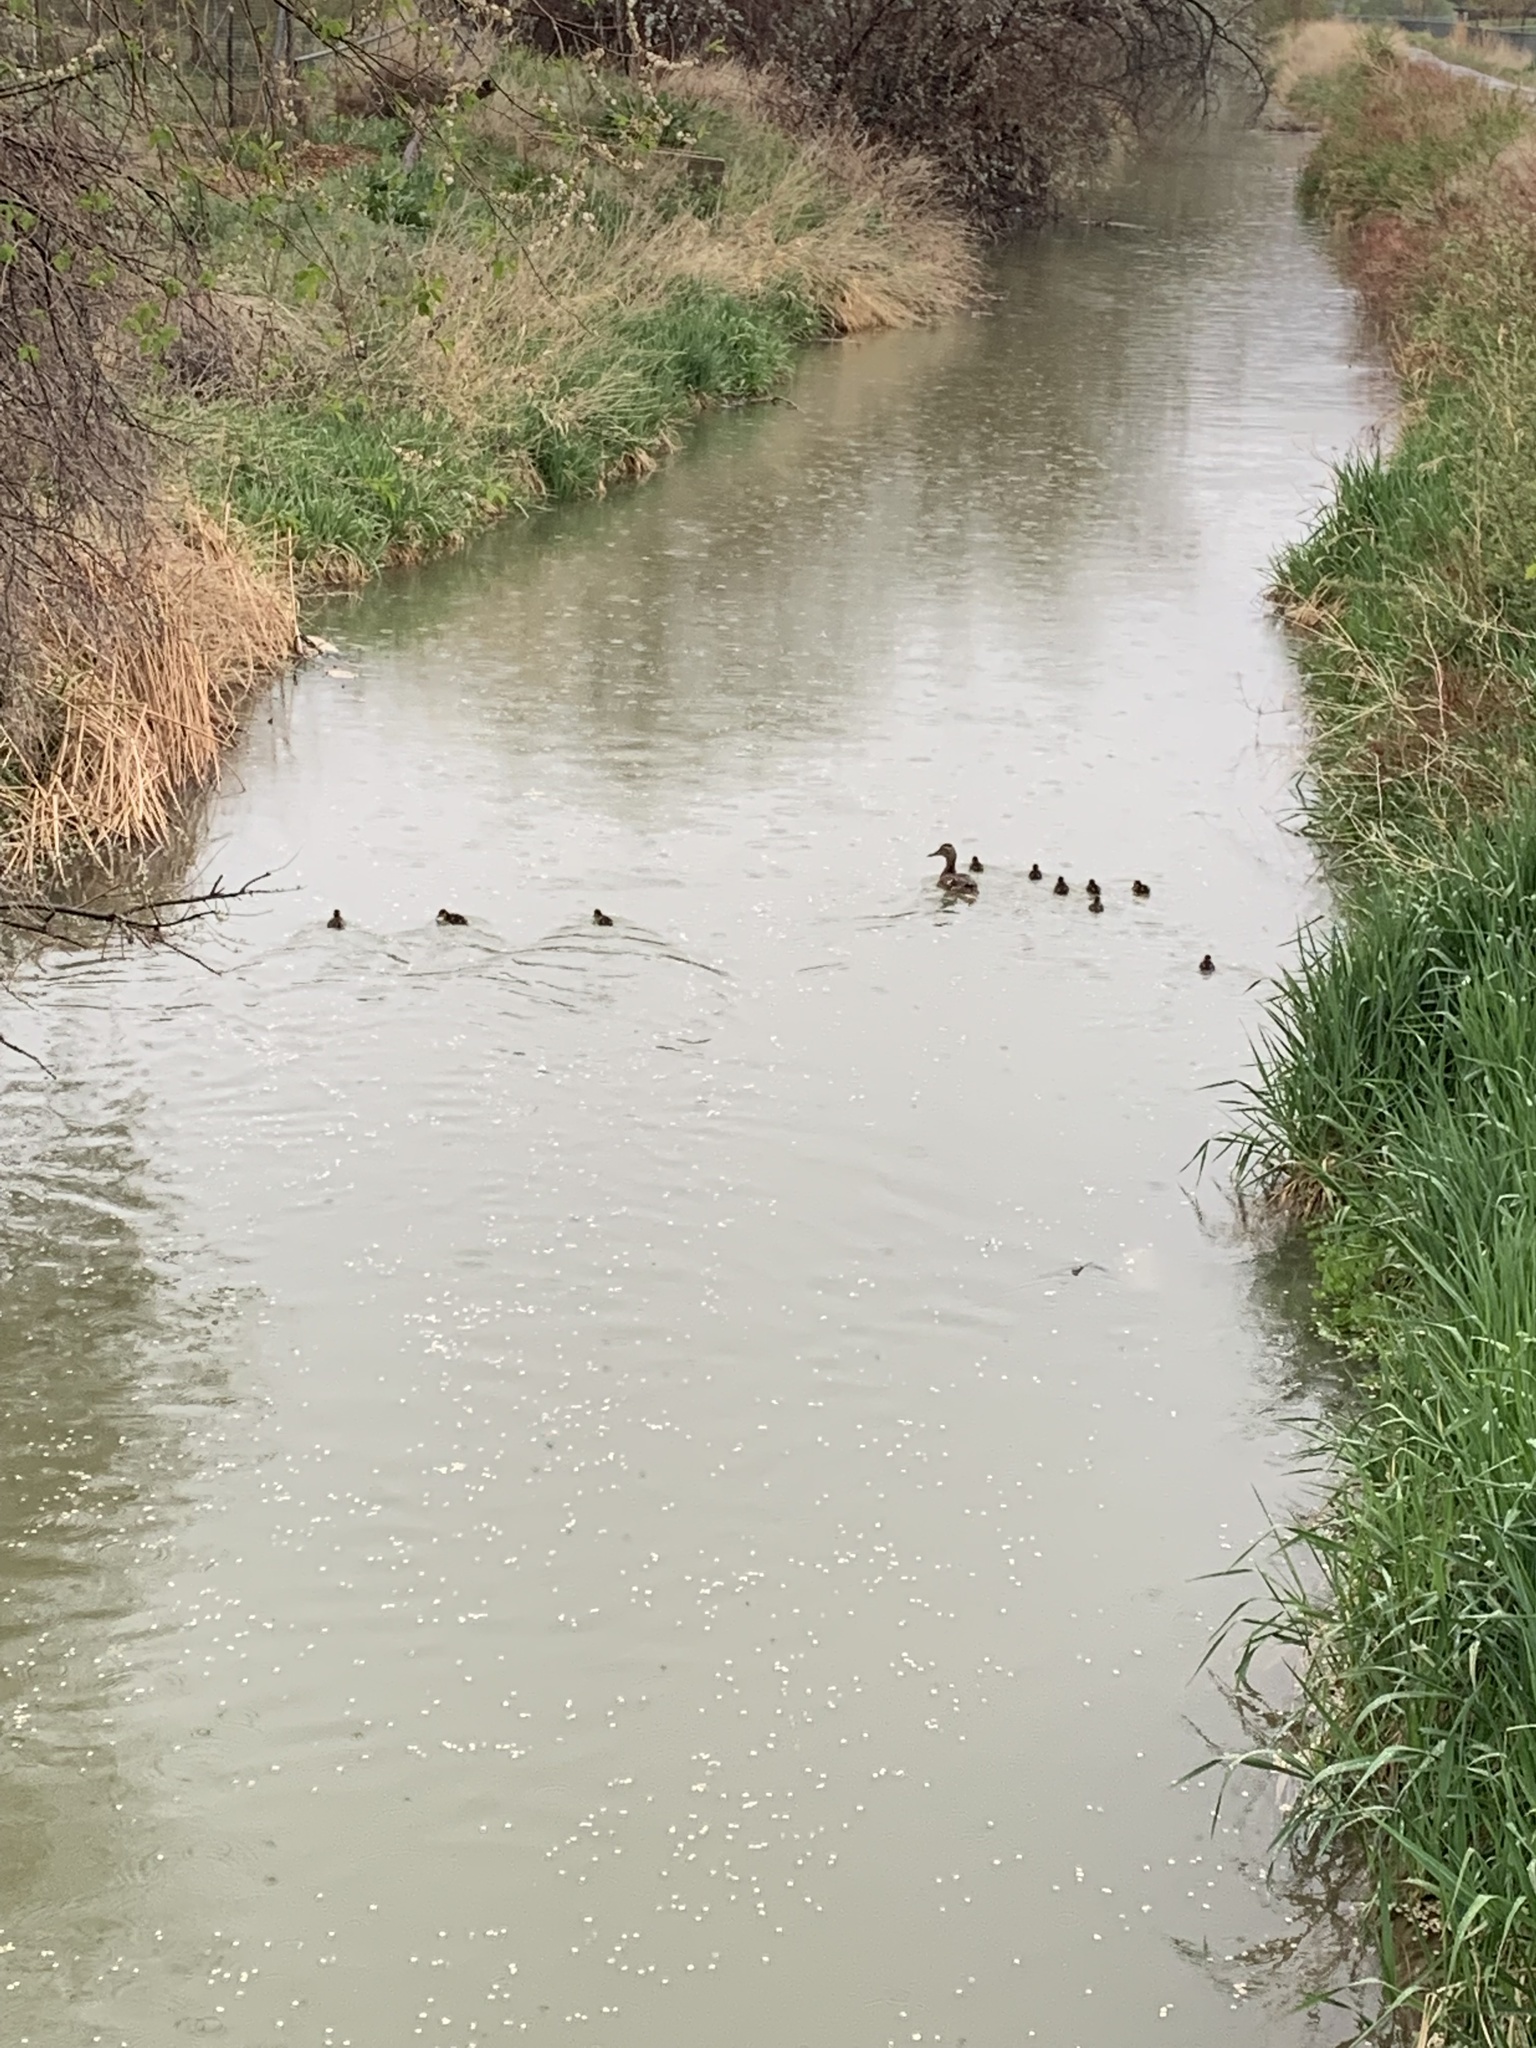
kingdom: Animalia
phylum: Chordata
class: Aves
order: Anseriformes
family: Anatidae
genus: Anas
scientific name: Anas platyrhynchos
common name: Mallard
